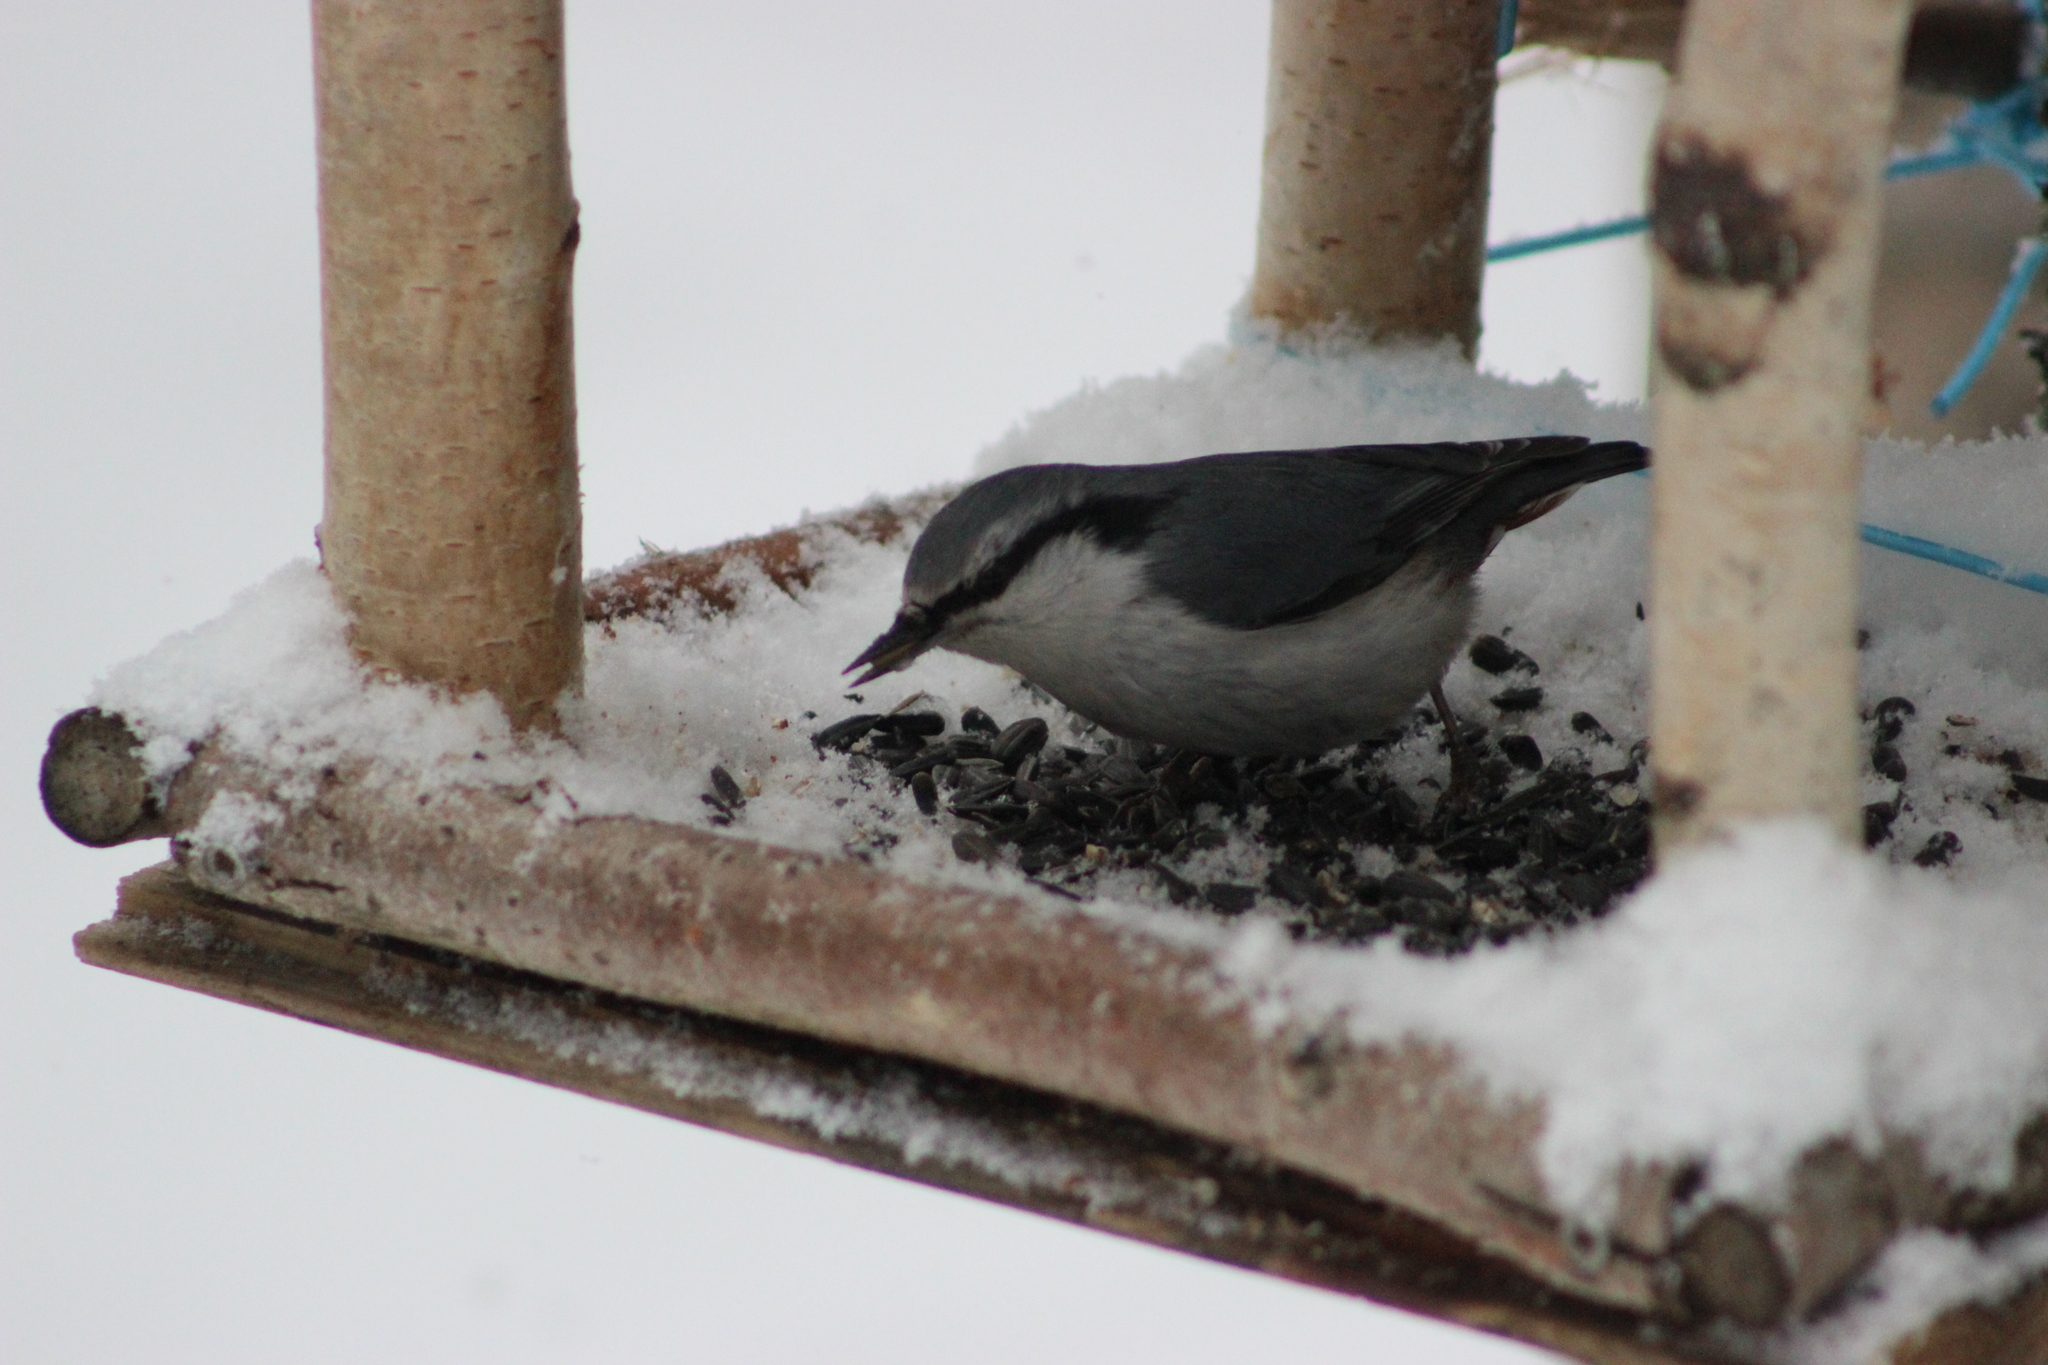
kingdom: Animalia
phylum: Chordata
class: Aves
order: Passeriformes
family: Sittidae
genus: Sitta
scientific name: Sitta europaea
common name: Eurasian nuthatch
